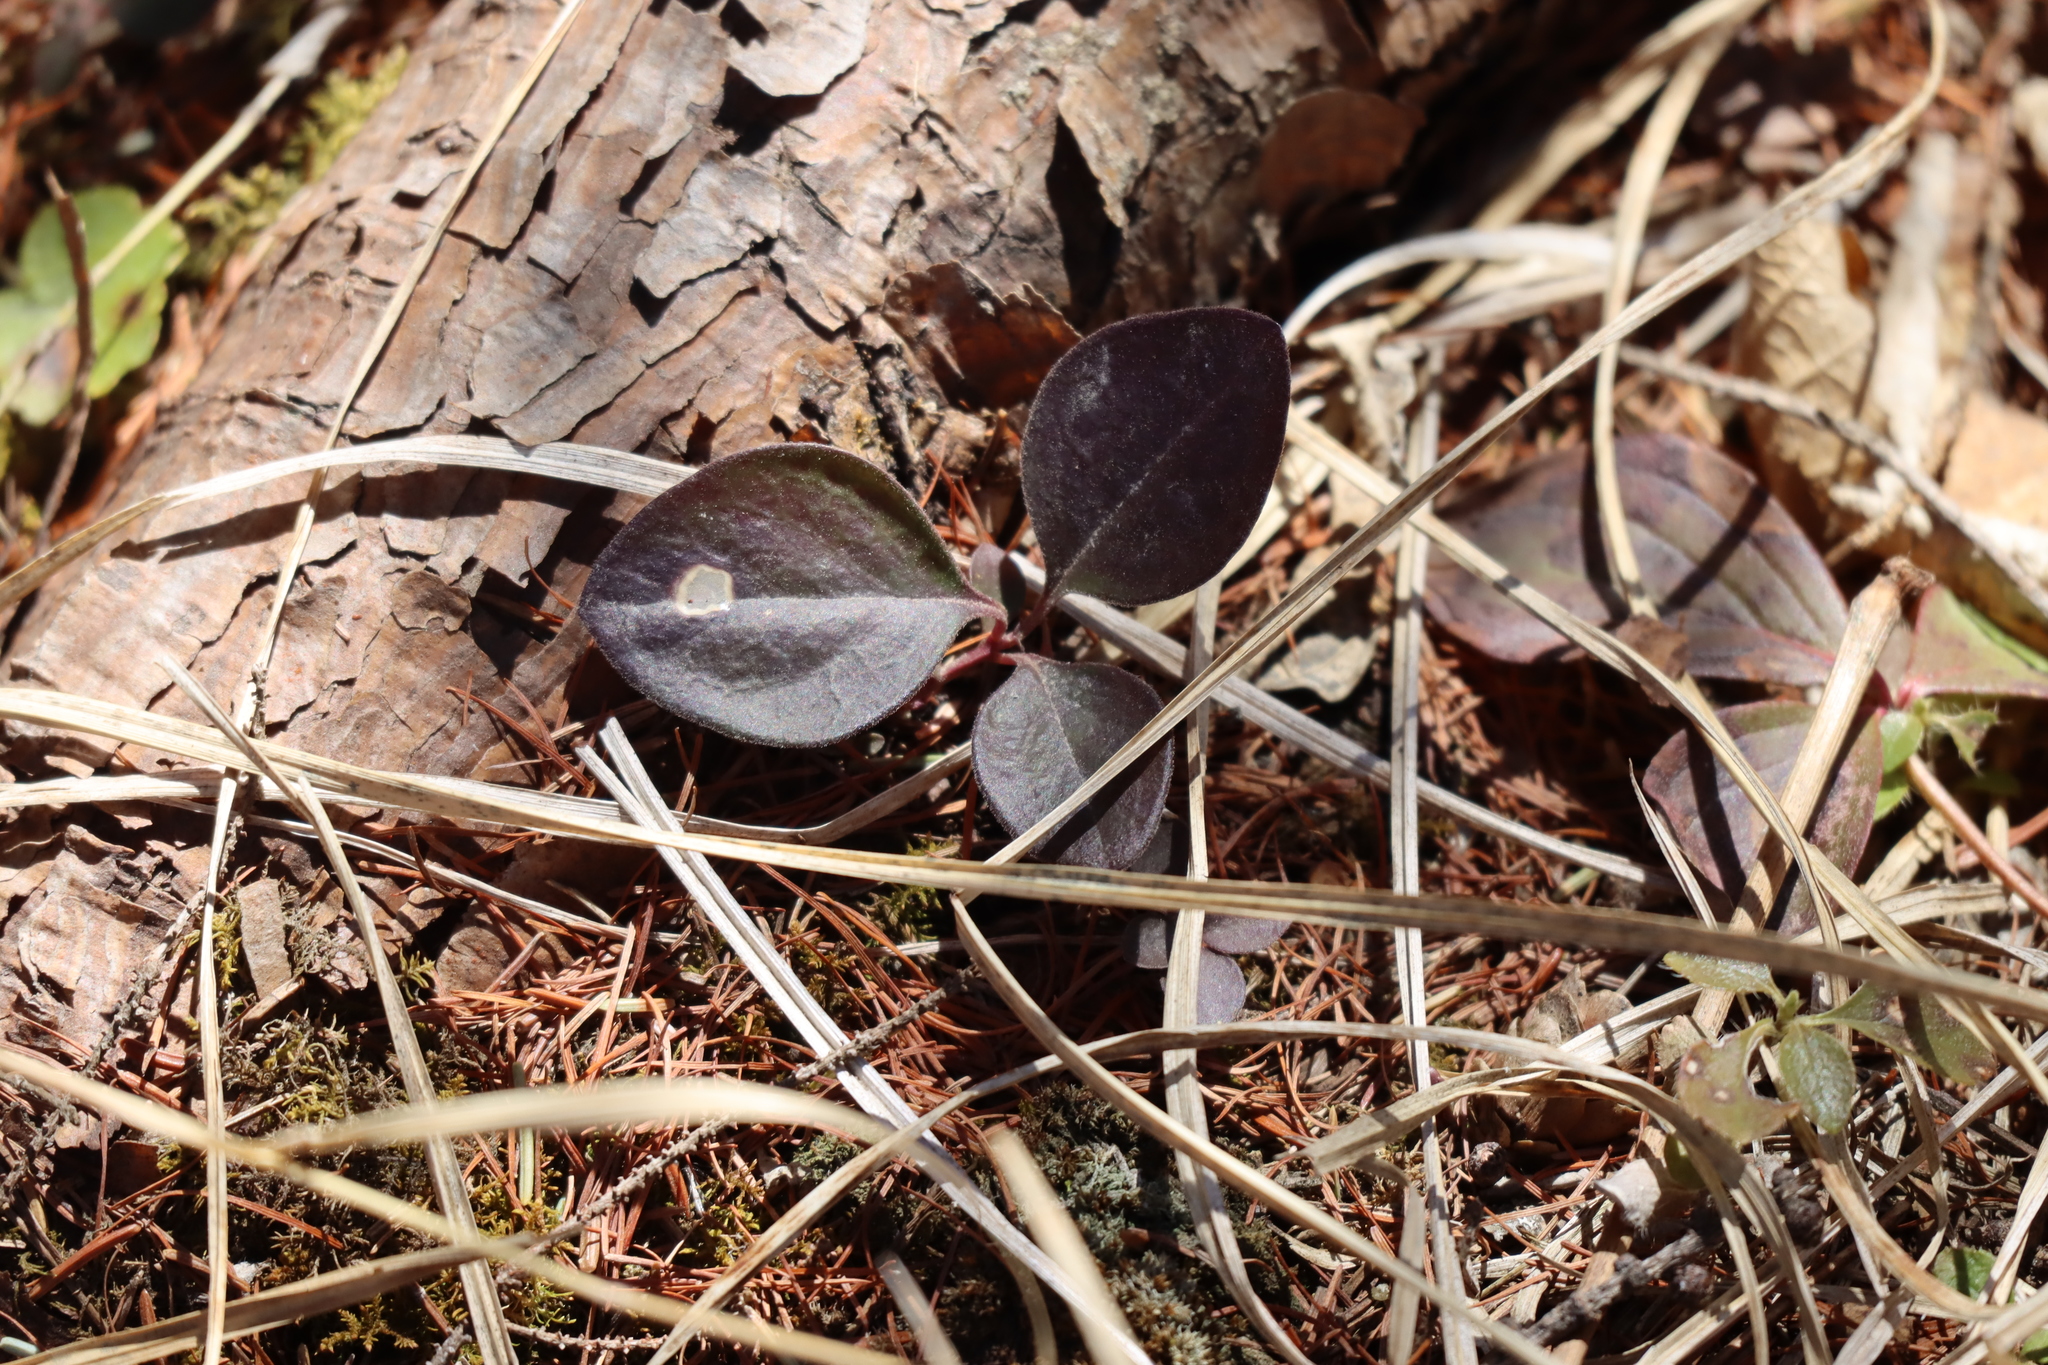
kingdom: Plantae
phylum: Tracheophyta
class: Magnoliopsida
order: Ericales
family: Ericaceae
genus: Gaultheria
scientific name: Gaultheria procumbens
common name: Checkerberry
